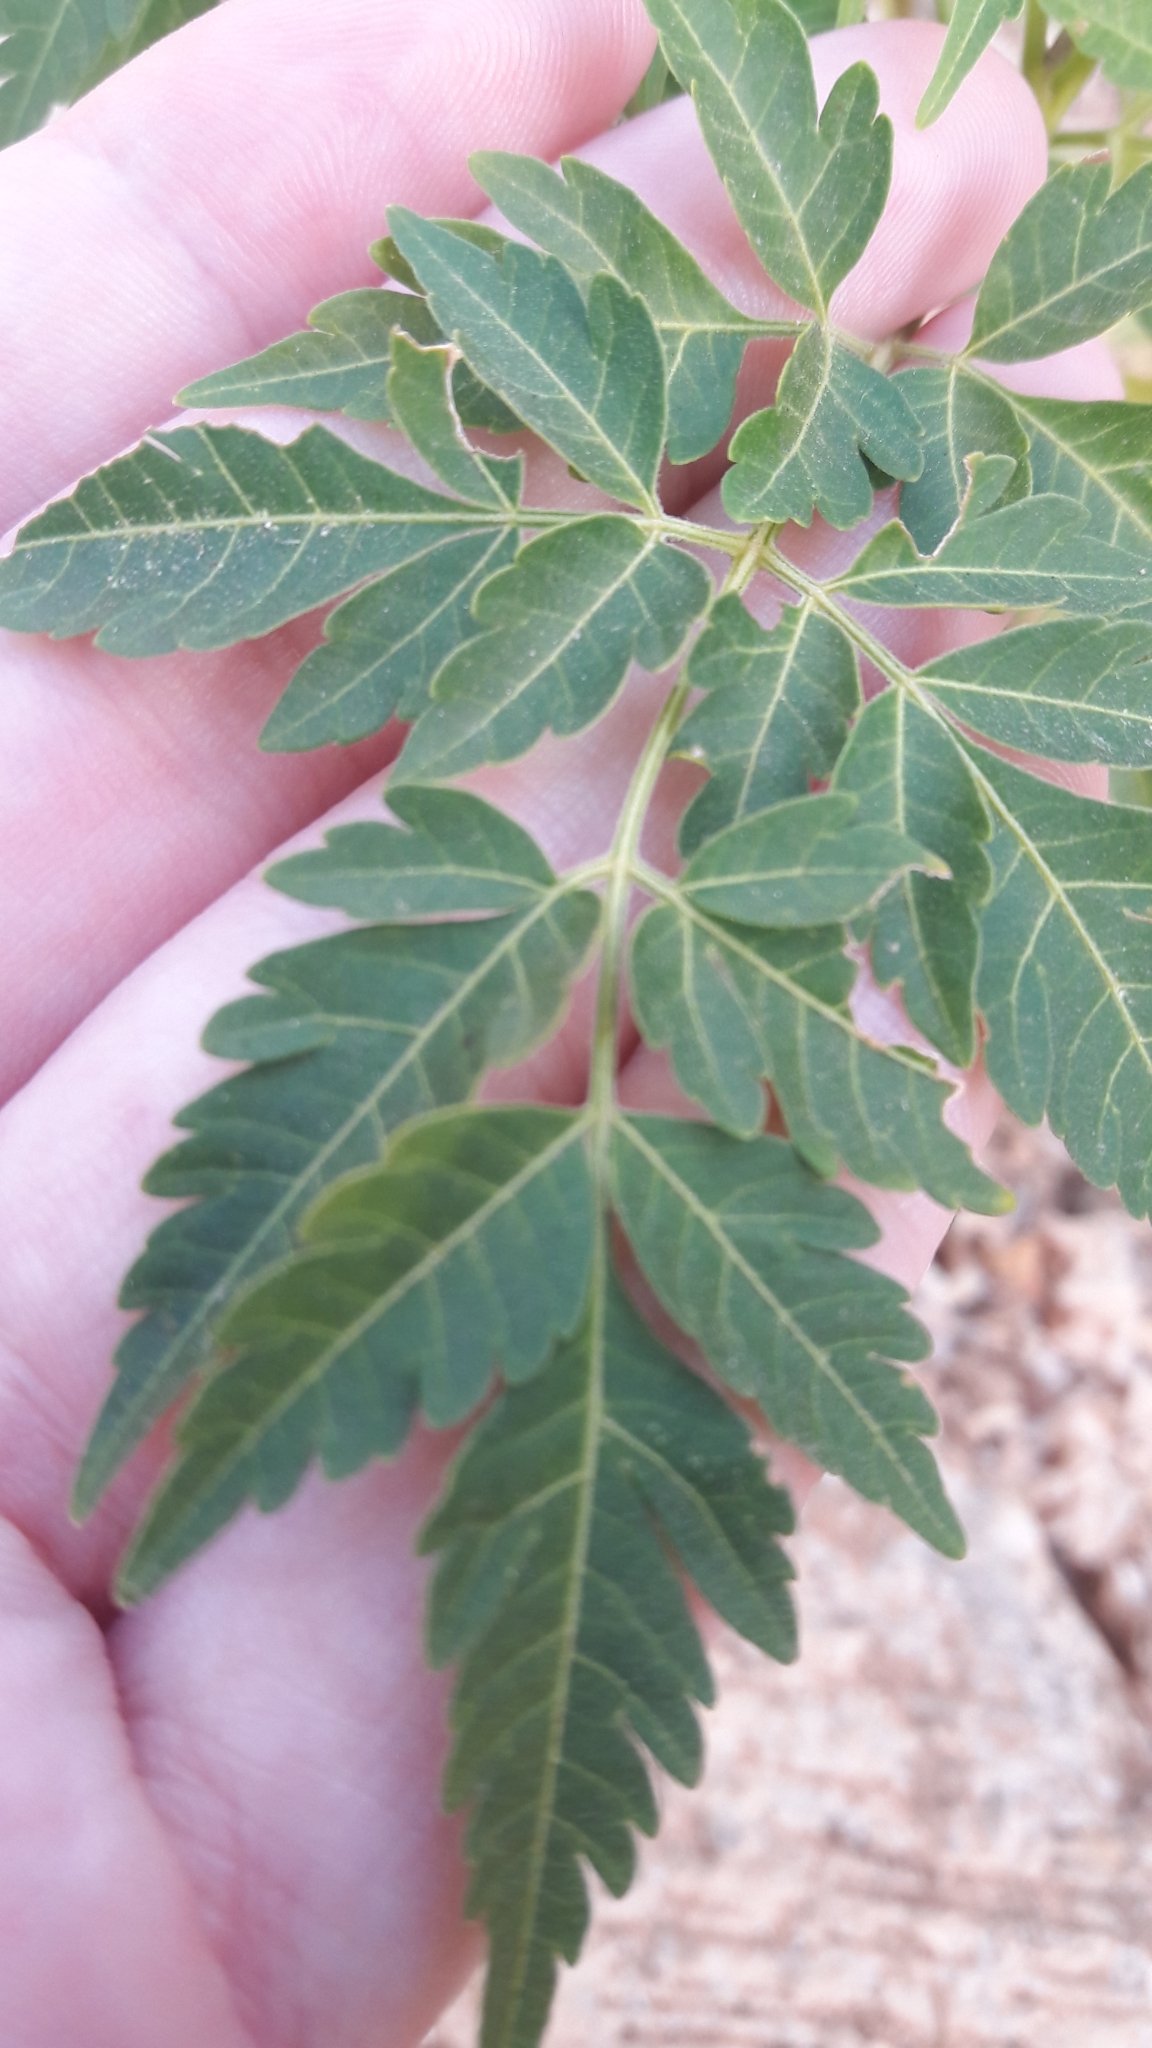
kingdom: Plantae
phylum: Tracheophyta
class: Magnoliopsida
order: Sapindales
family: Meliaceae
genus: Melia
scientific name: Melia azedarach
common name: Chinaberrytree
